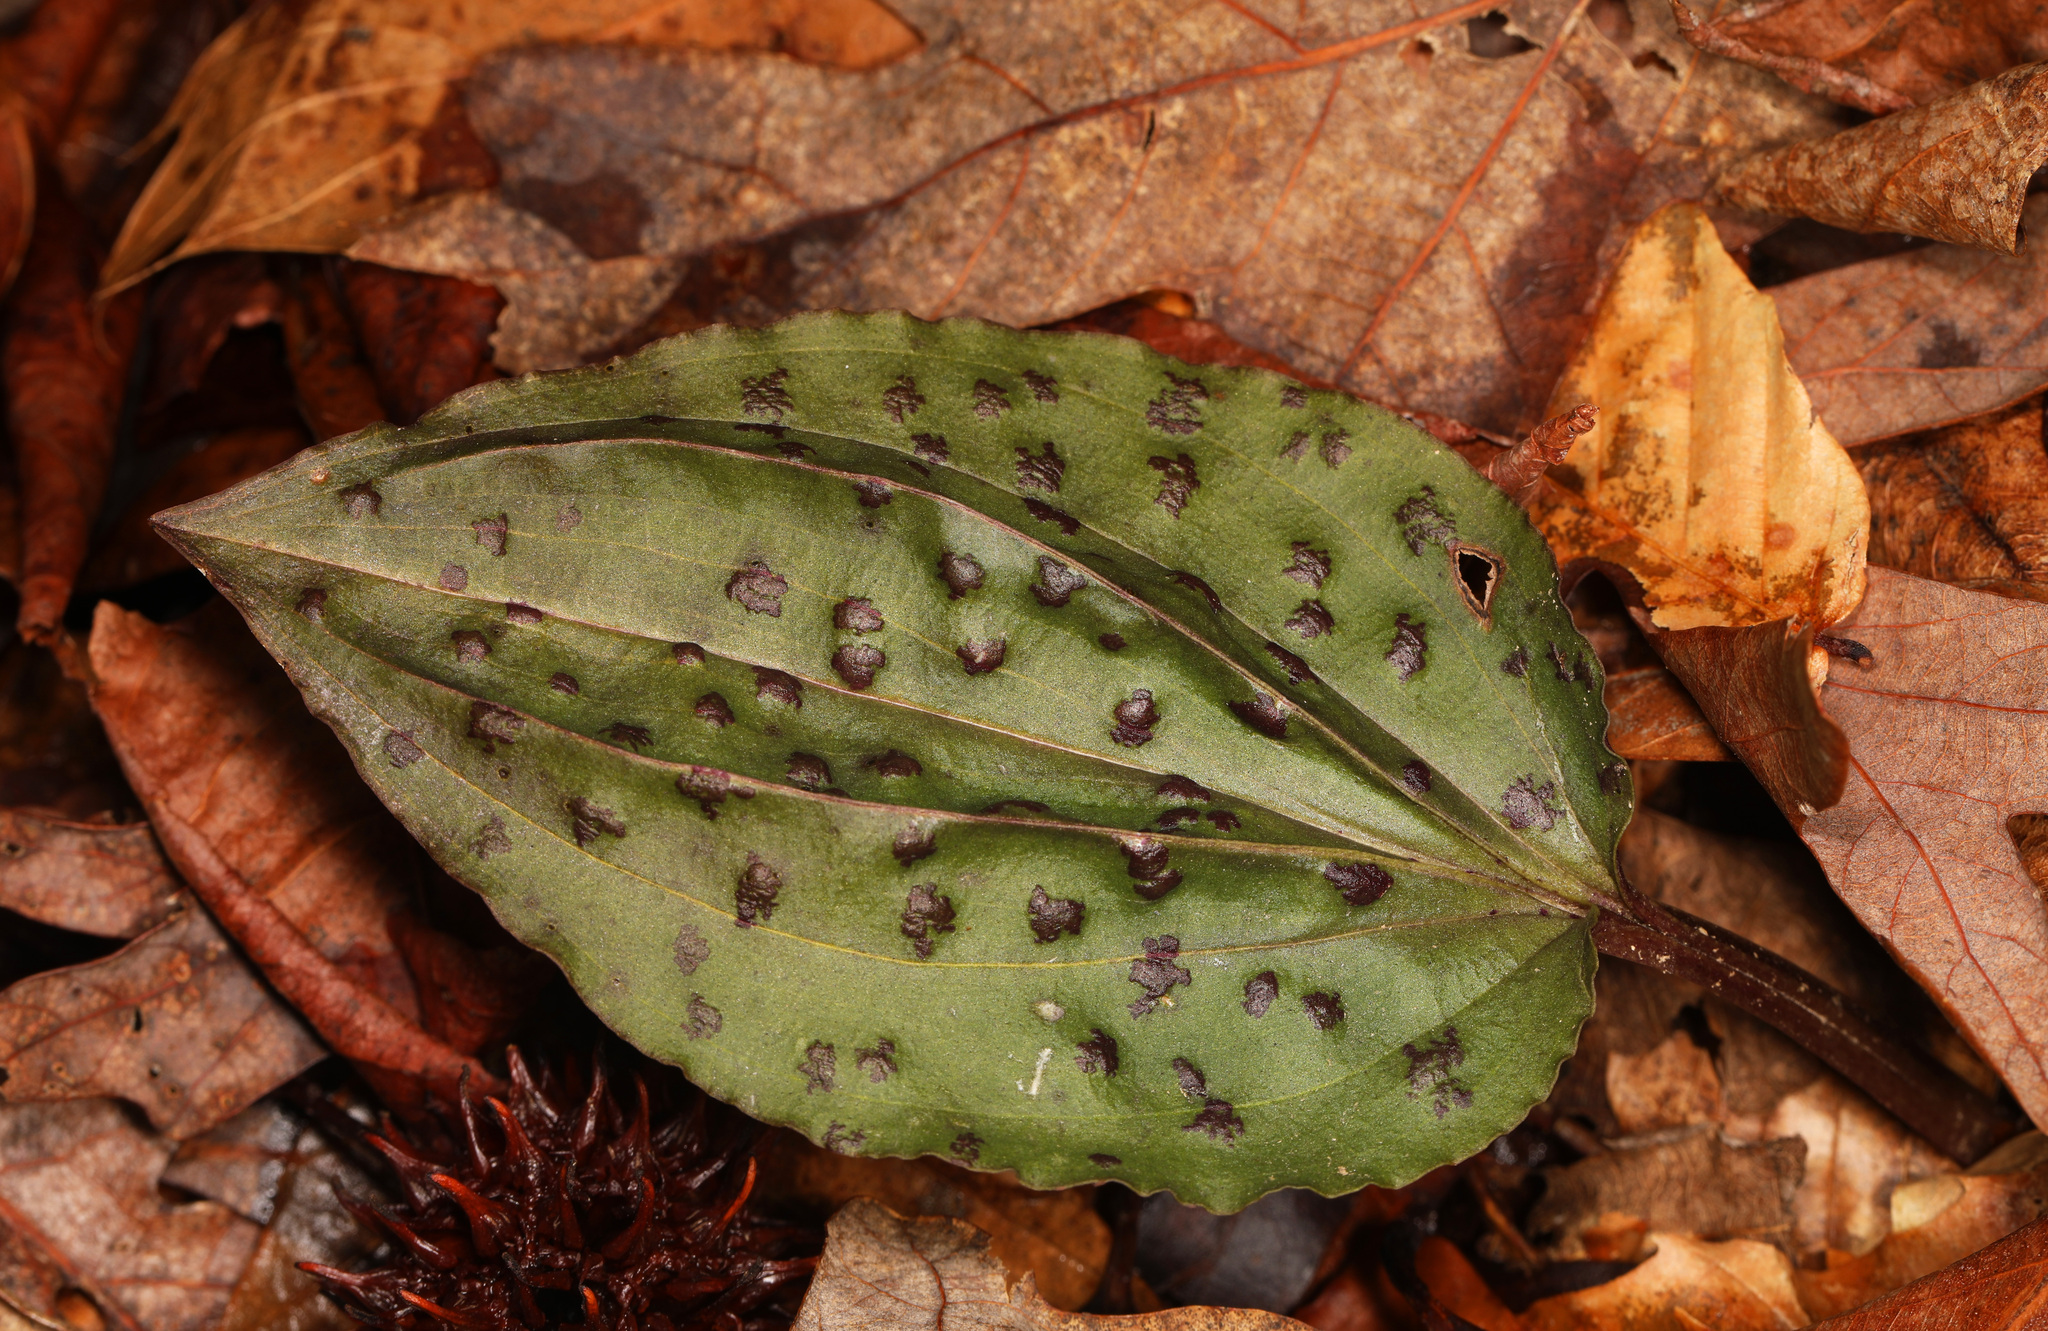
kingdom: Plantae
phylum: Tracheophyta
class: Liliopsida
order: Asparagales
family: Orchidaceae
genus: Tipularia
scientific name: Tipularia discolor
